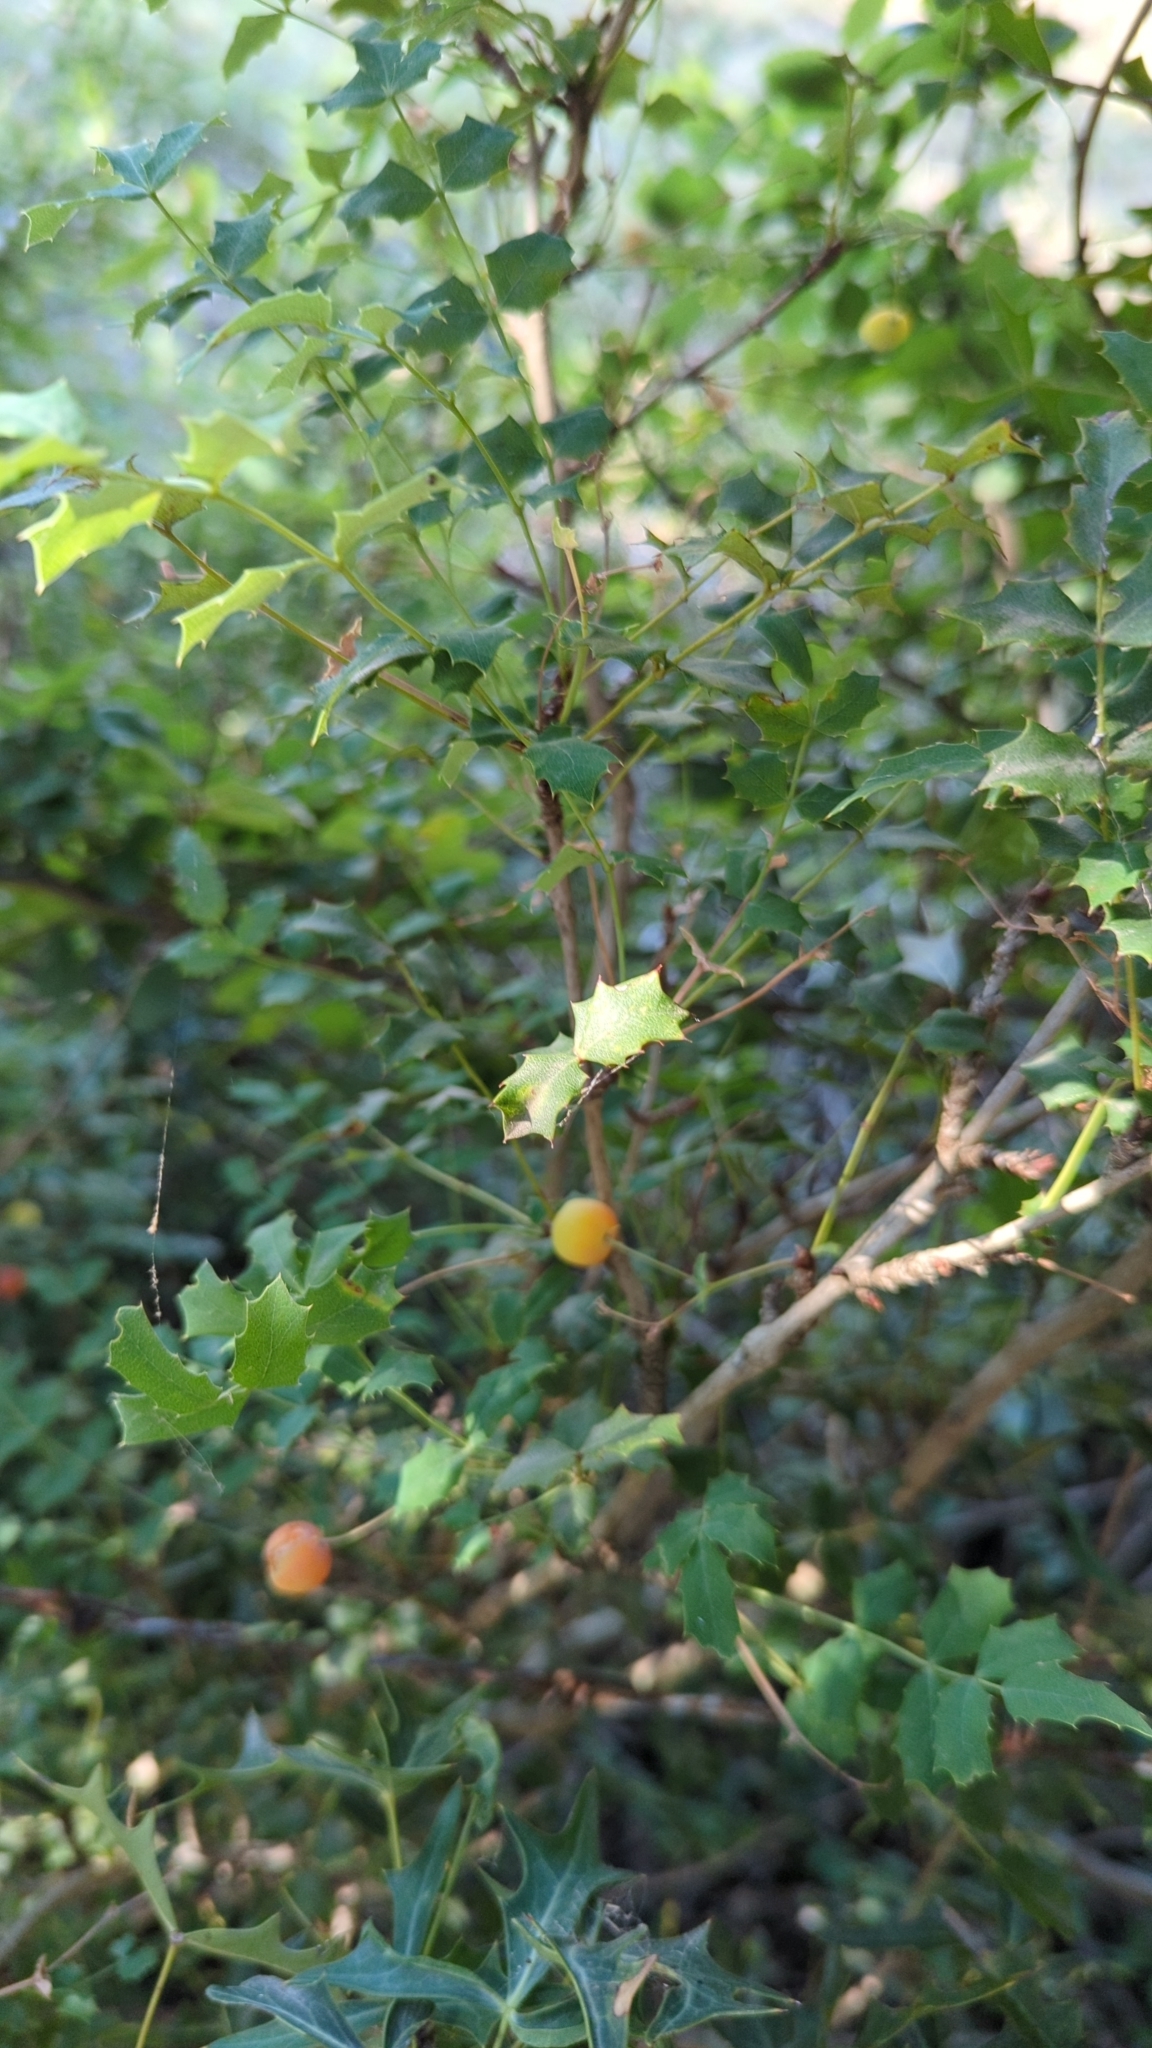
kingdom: Plantae
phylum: Tracheophyta
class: Magnoliopsida
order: Ranunculales
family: Berberidaceae
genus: Berberis
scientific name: Berberis swaseyi
